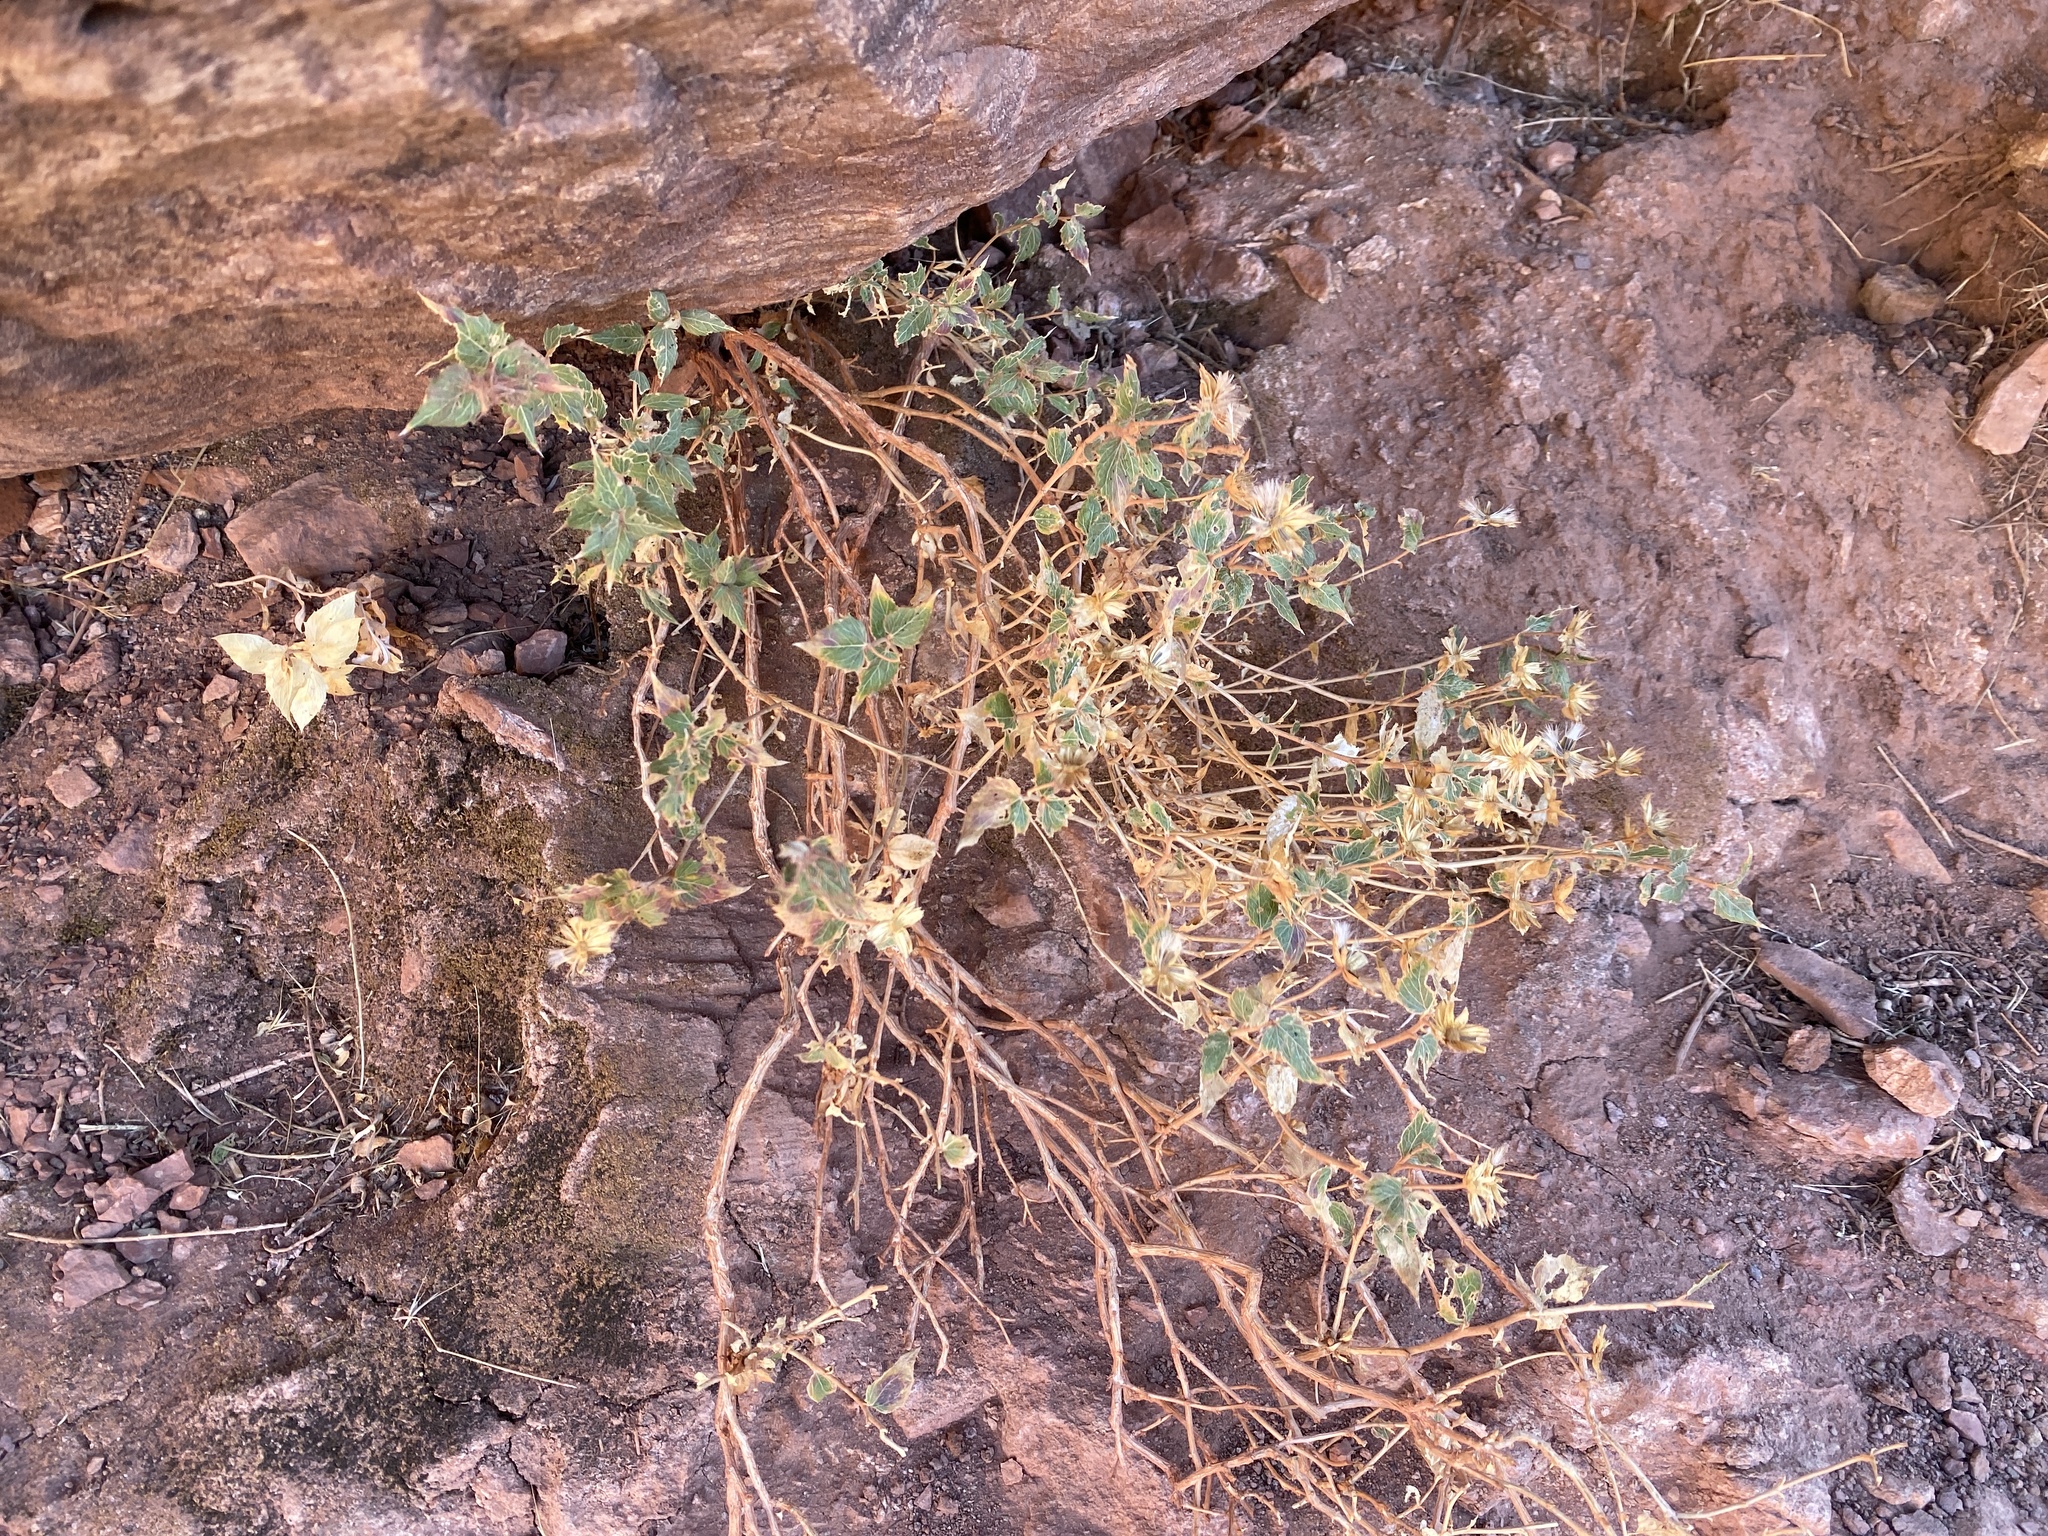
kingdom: Plantae
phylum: Tracheophyta
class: Magnoliopsida
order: Asterales
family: Asteraceae
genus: Brickellia
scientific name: Brickellia atractyloides
